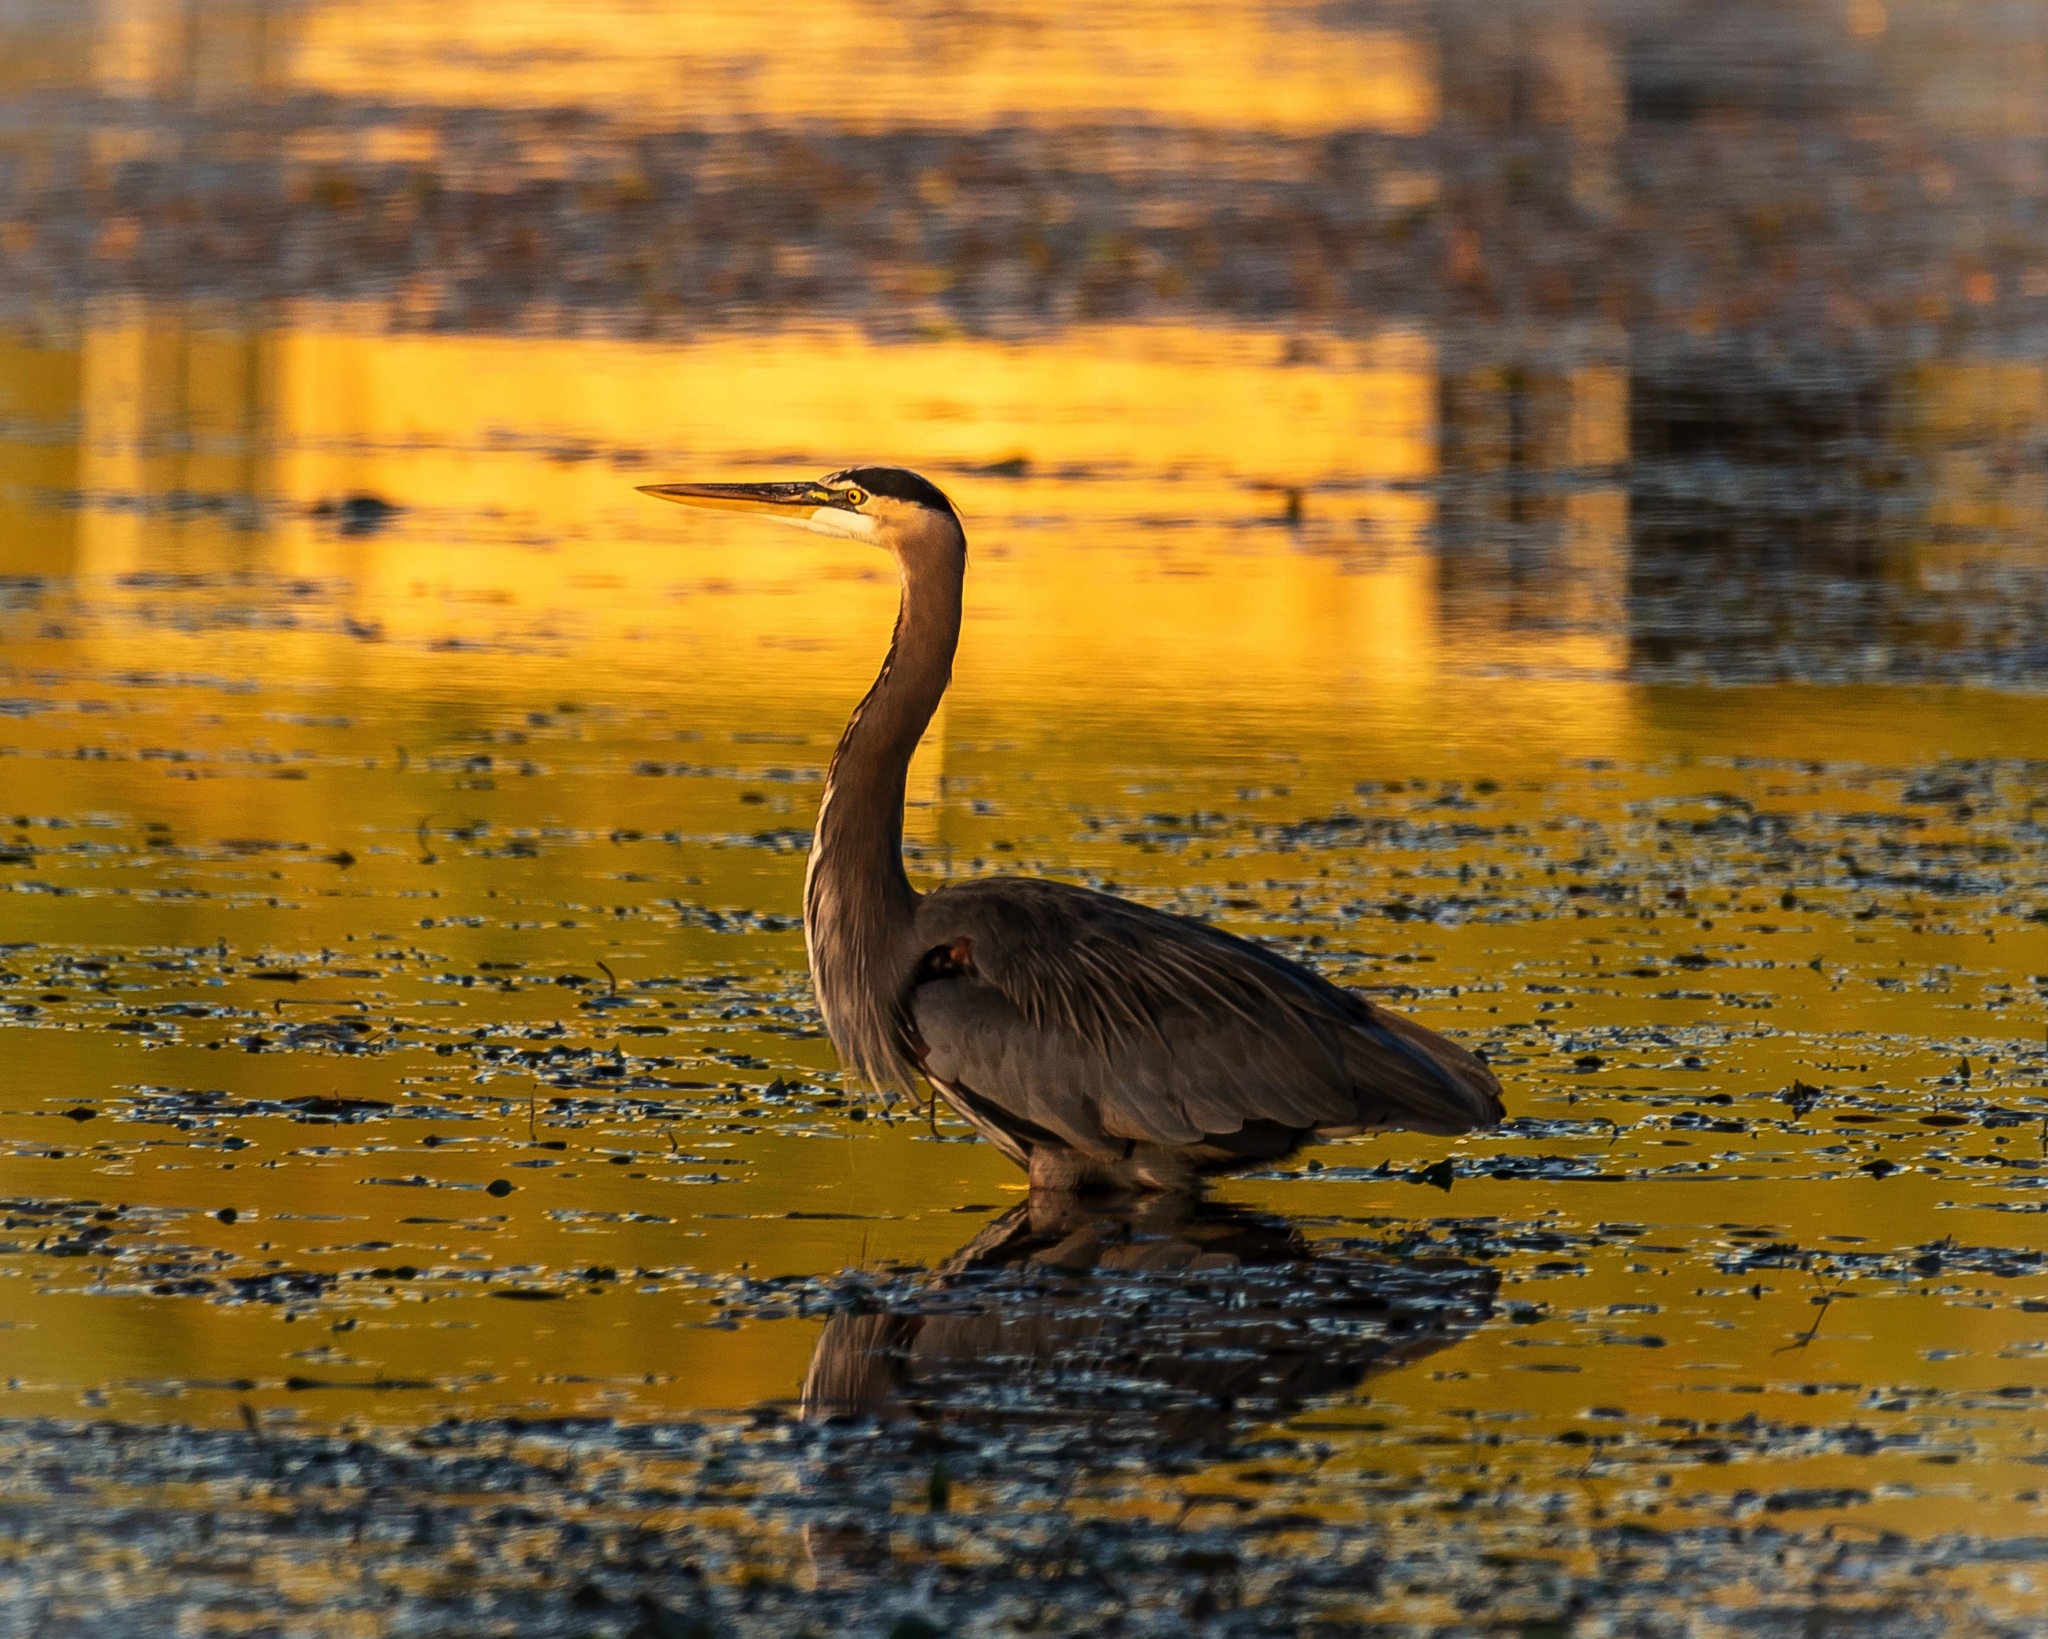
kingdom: Animalia
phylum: Chordata
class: Aves
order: Pelecaniformes
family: Ardeidae
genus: Ardea
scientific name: Ardea herodias
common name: Great blue heron
